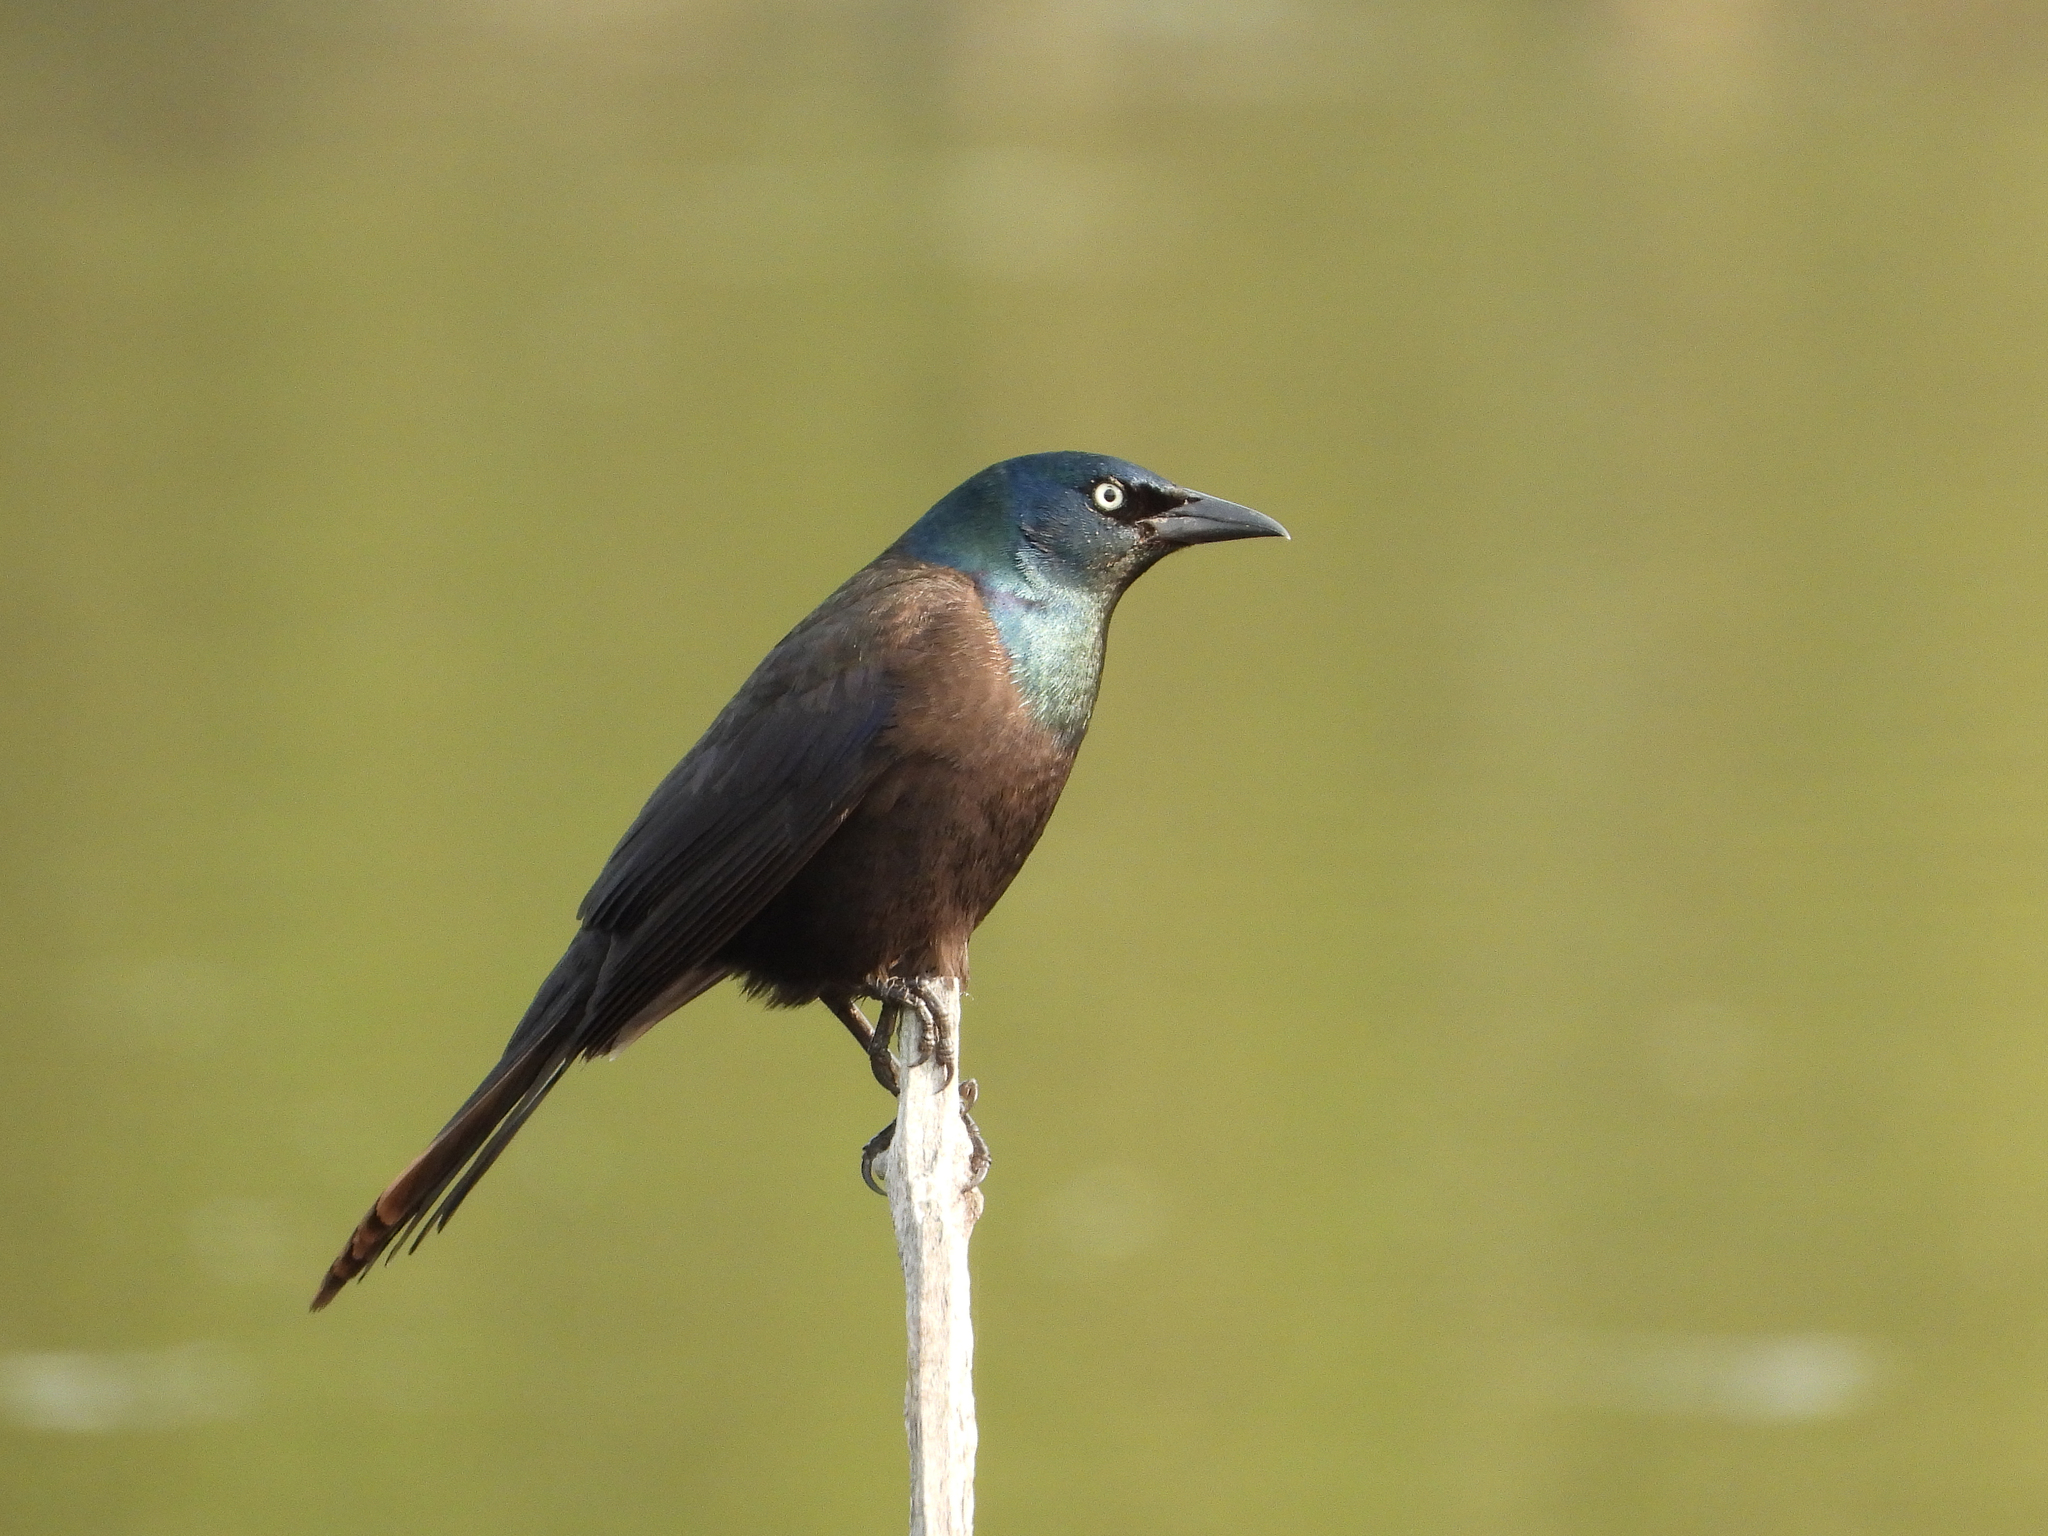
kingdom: Animalia
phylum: Chordata
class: Aves
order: Passeriformes
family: Icteridae
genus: Quiscalus
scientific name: Quiscalus quiscula
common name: Common grackle
